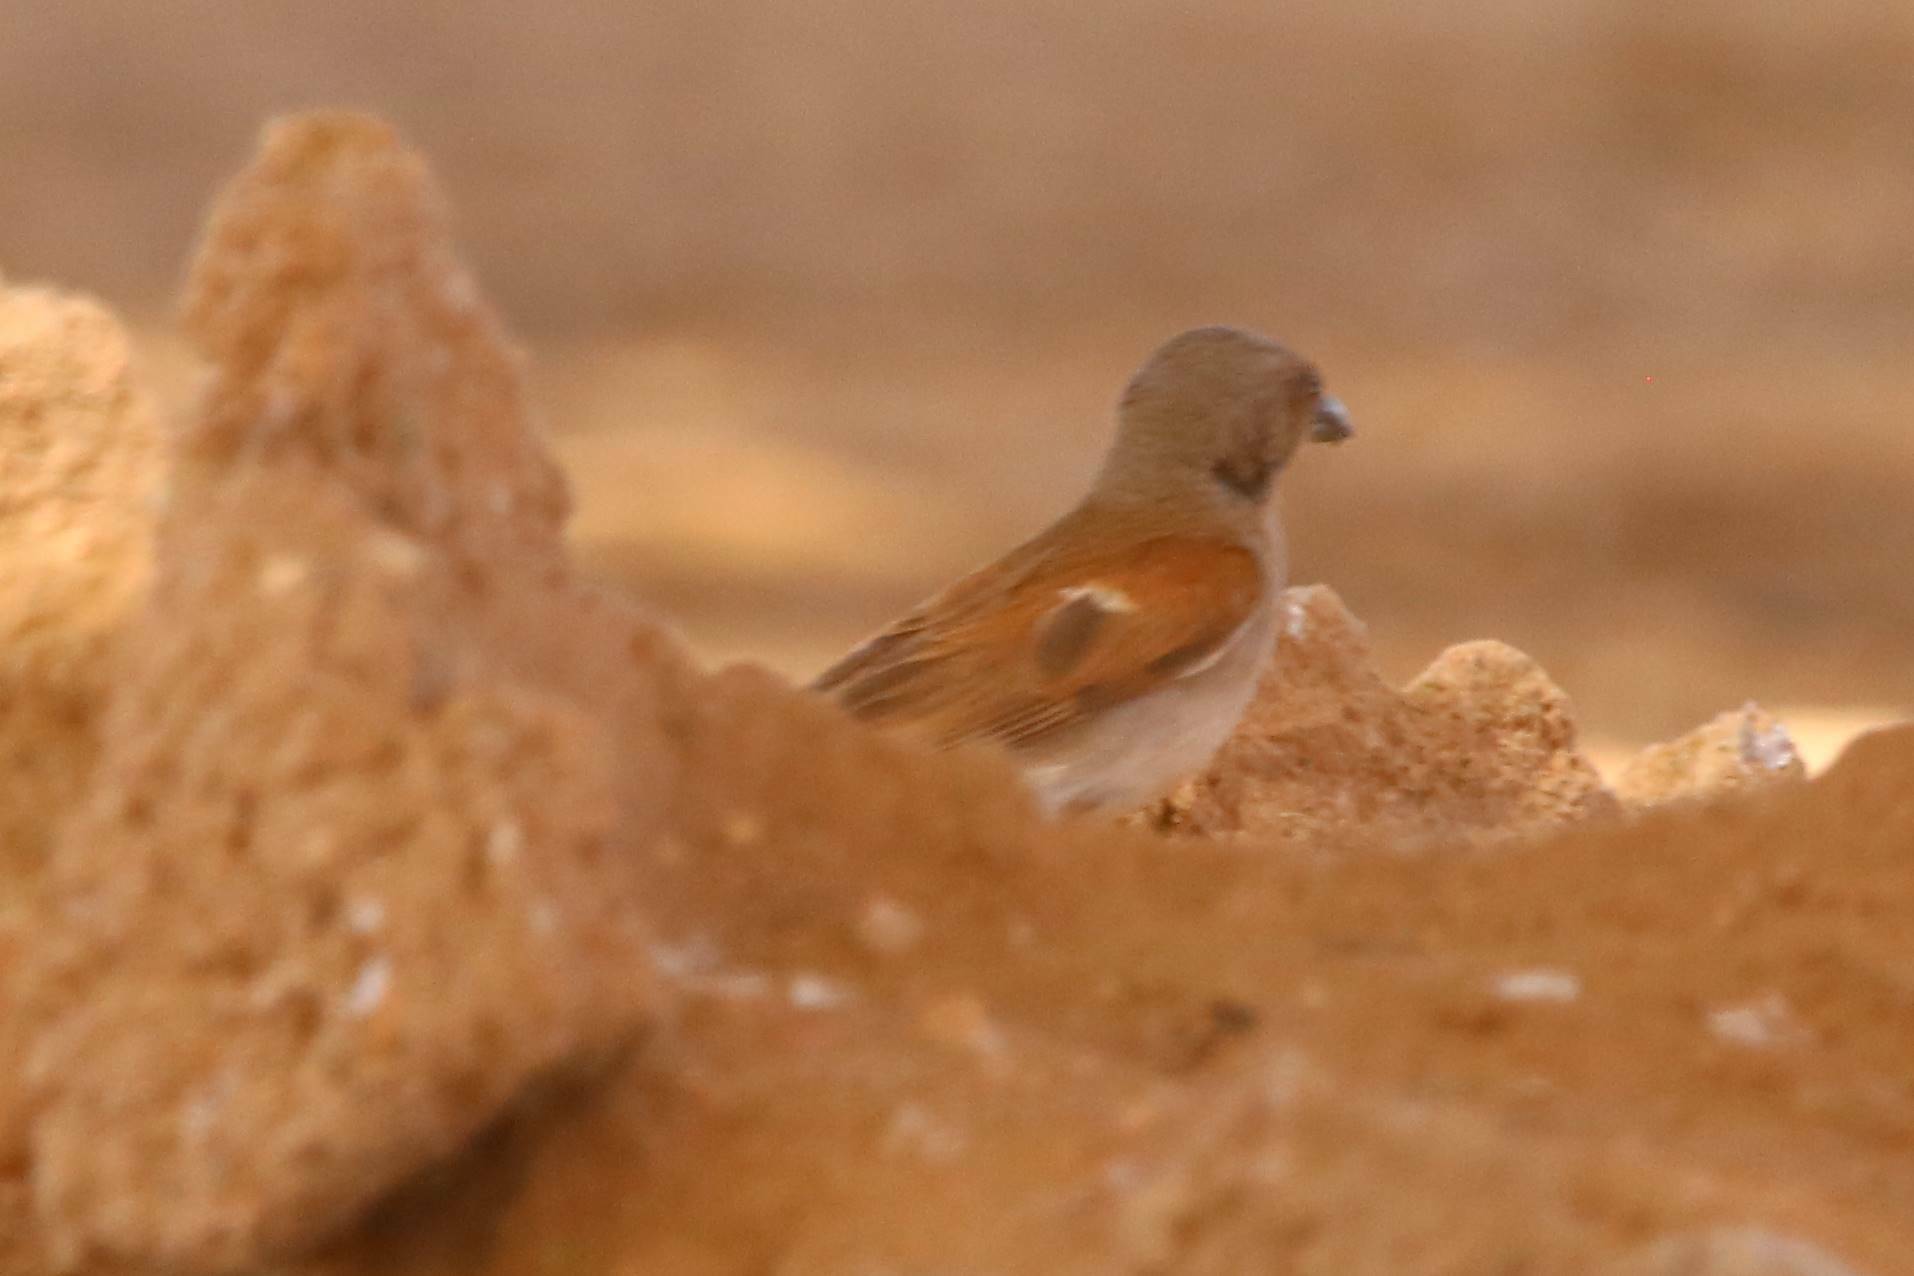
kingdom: Animalia
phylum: Chordata
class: Aves
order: Passeriformes
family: Passeridae
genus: Passer
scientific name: Passer griseus
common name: Northern grey-headed sparrow
